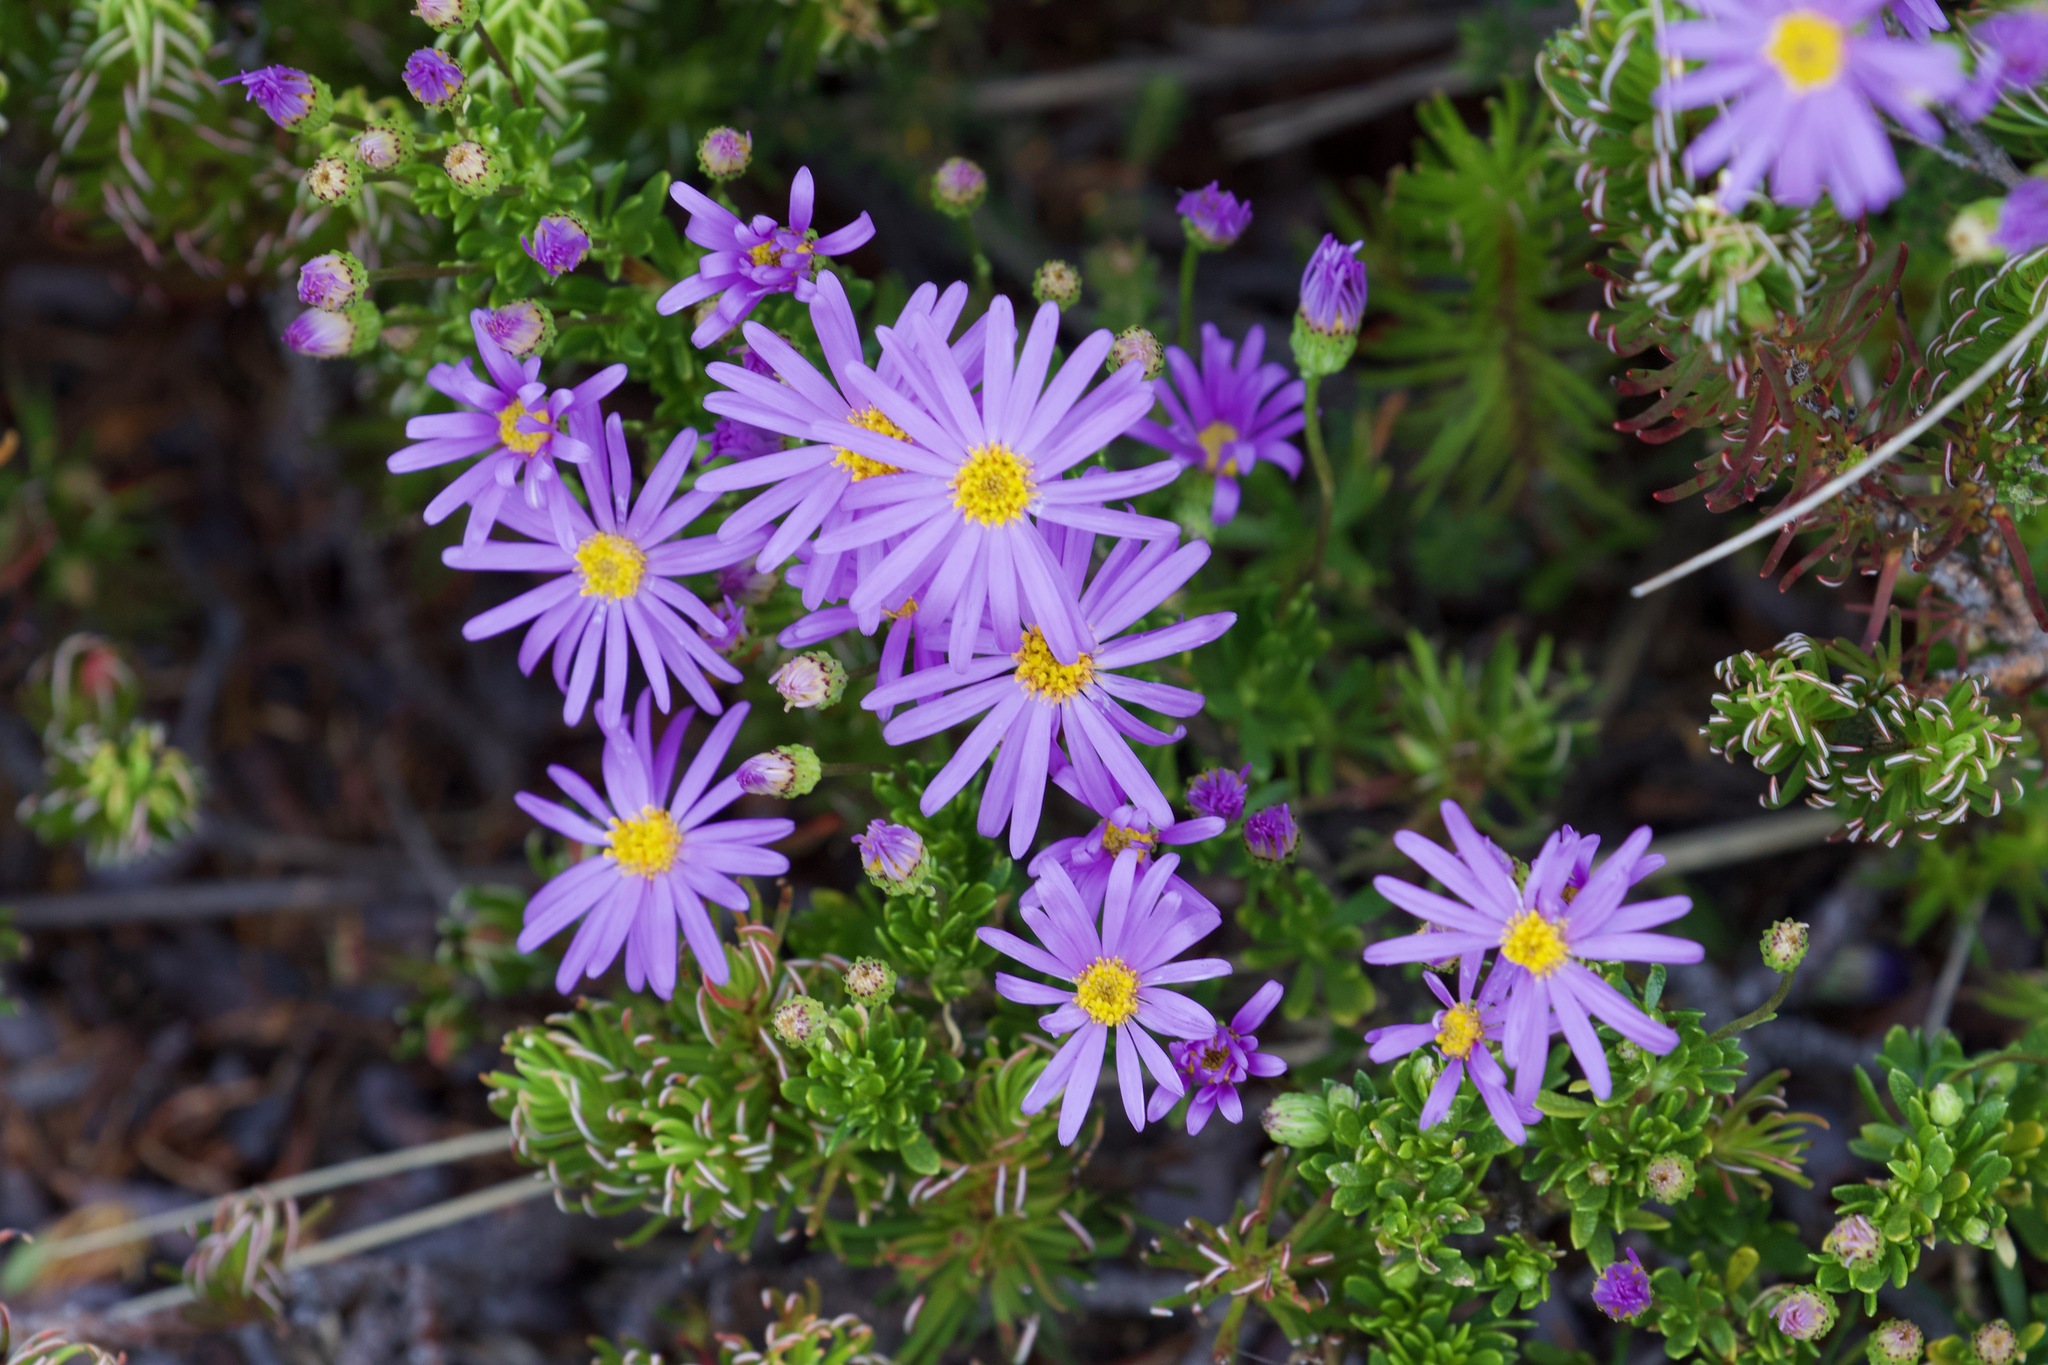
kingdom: Plantae
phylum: Tracheophyta
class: Magnoliopsida
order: Asterales
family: Asteraceae
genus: Felicia
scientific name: Felicia fruticosa
